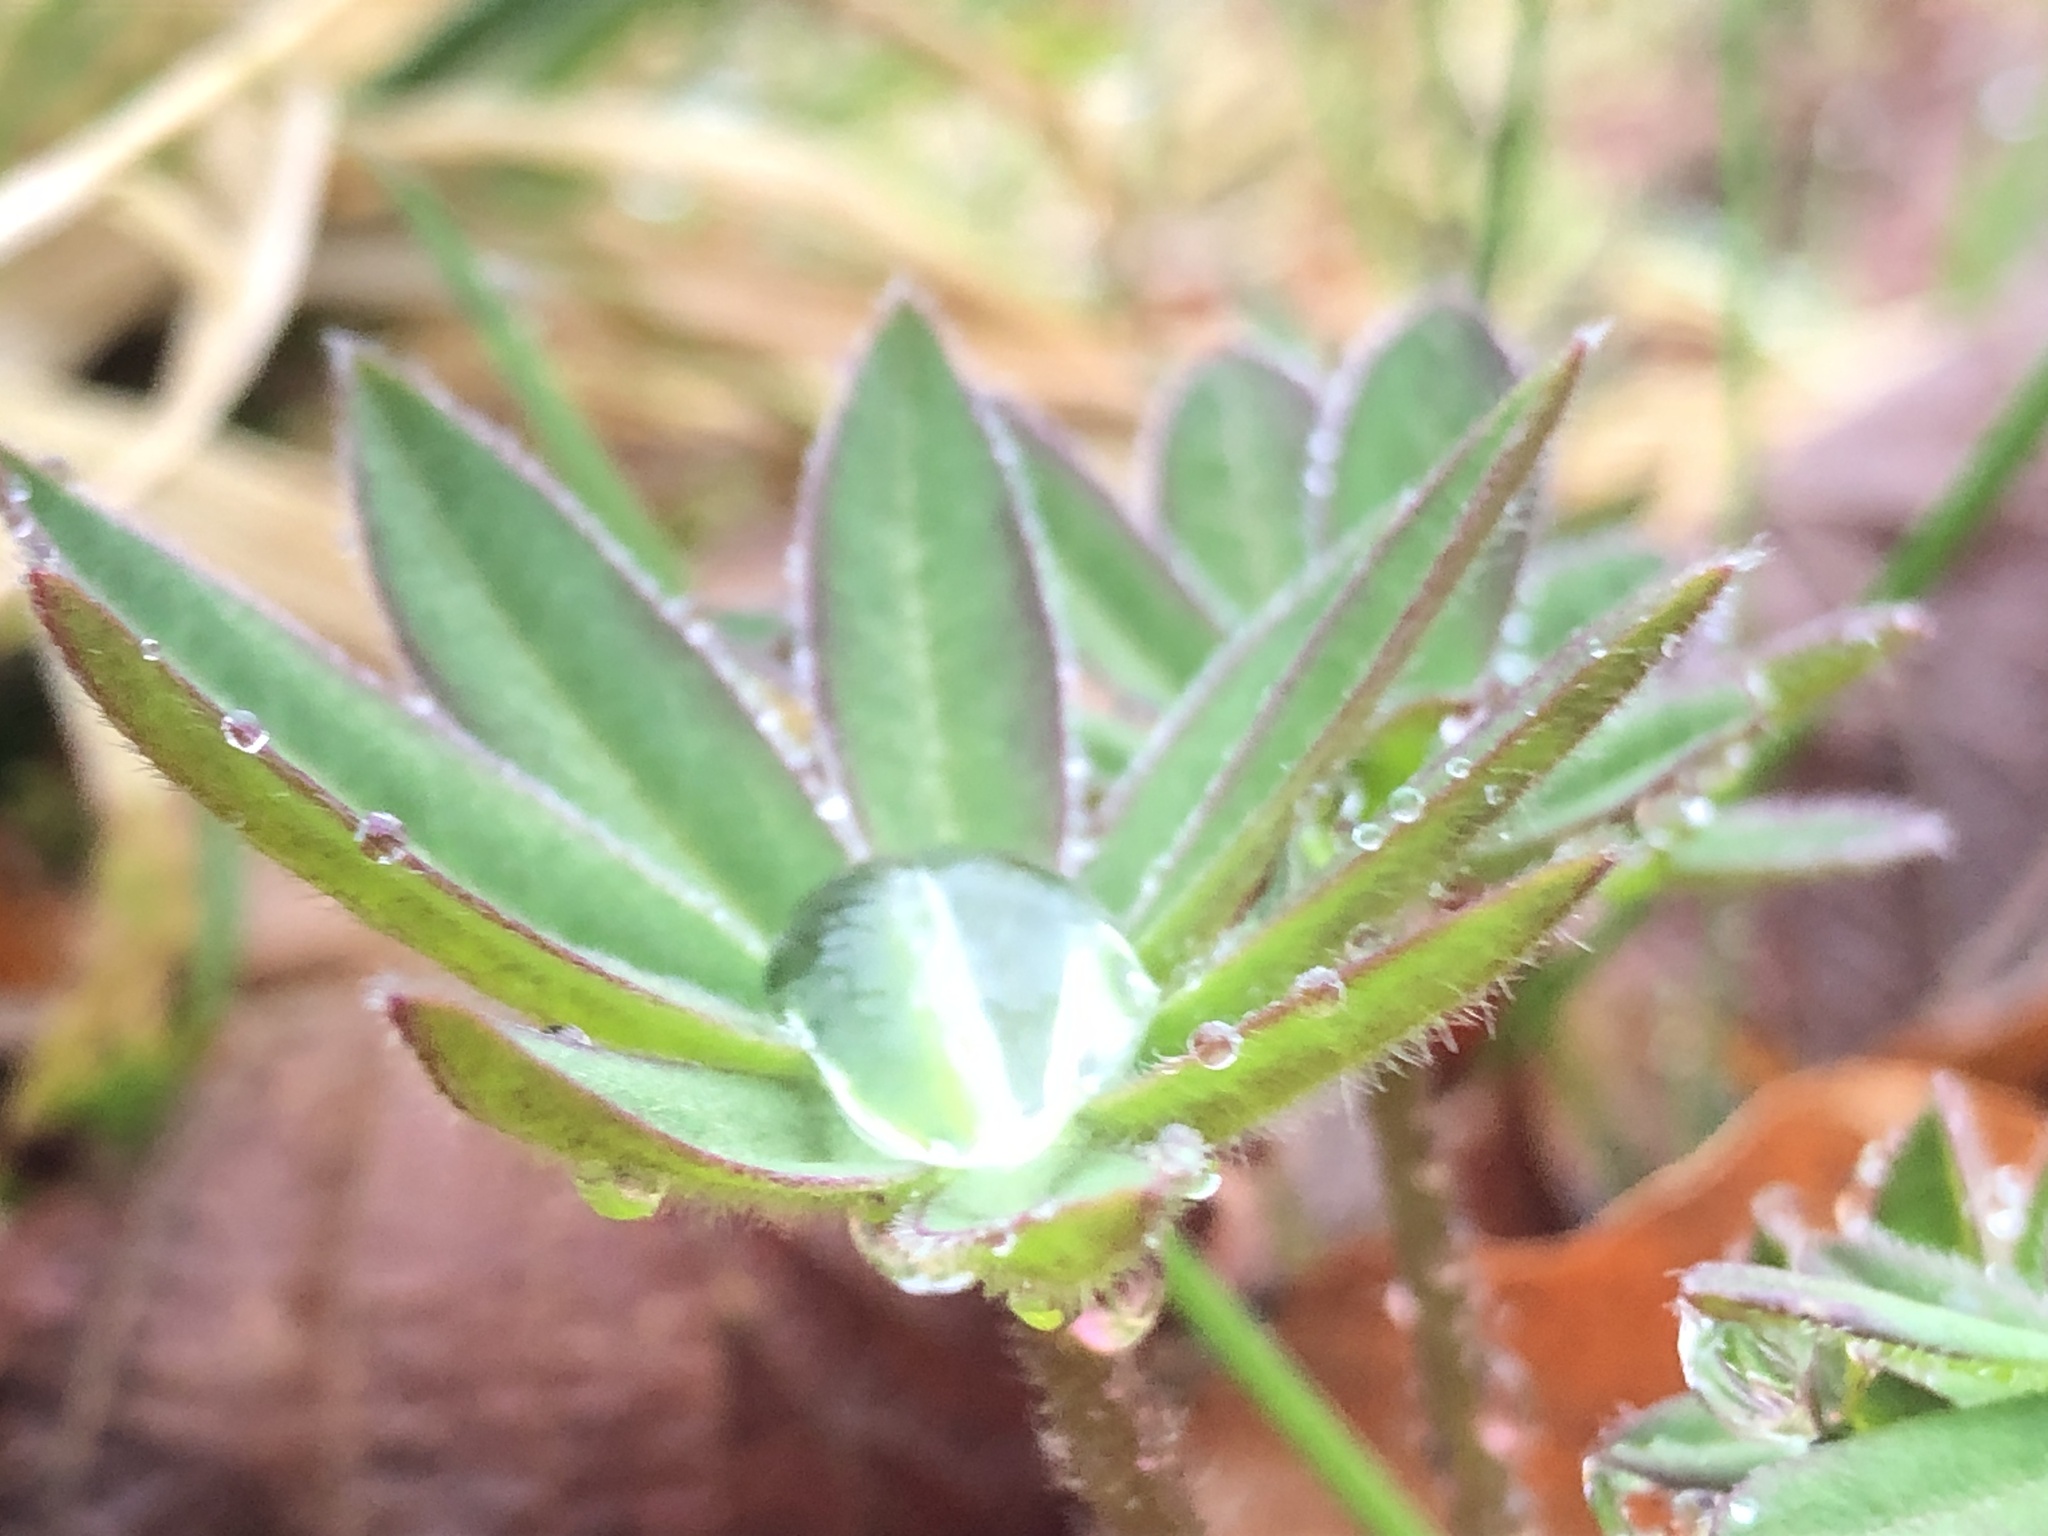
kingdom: Plantae
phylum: Tracheophyta
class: Magnoliopsida
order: Fabales
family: Fabaceae
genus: Lupinus
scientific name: Lupinus polyphyllus
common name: Garden lupin
